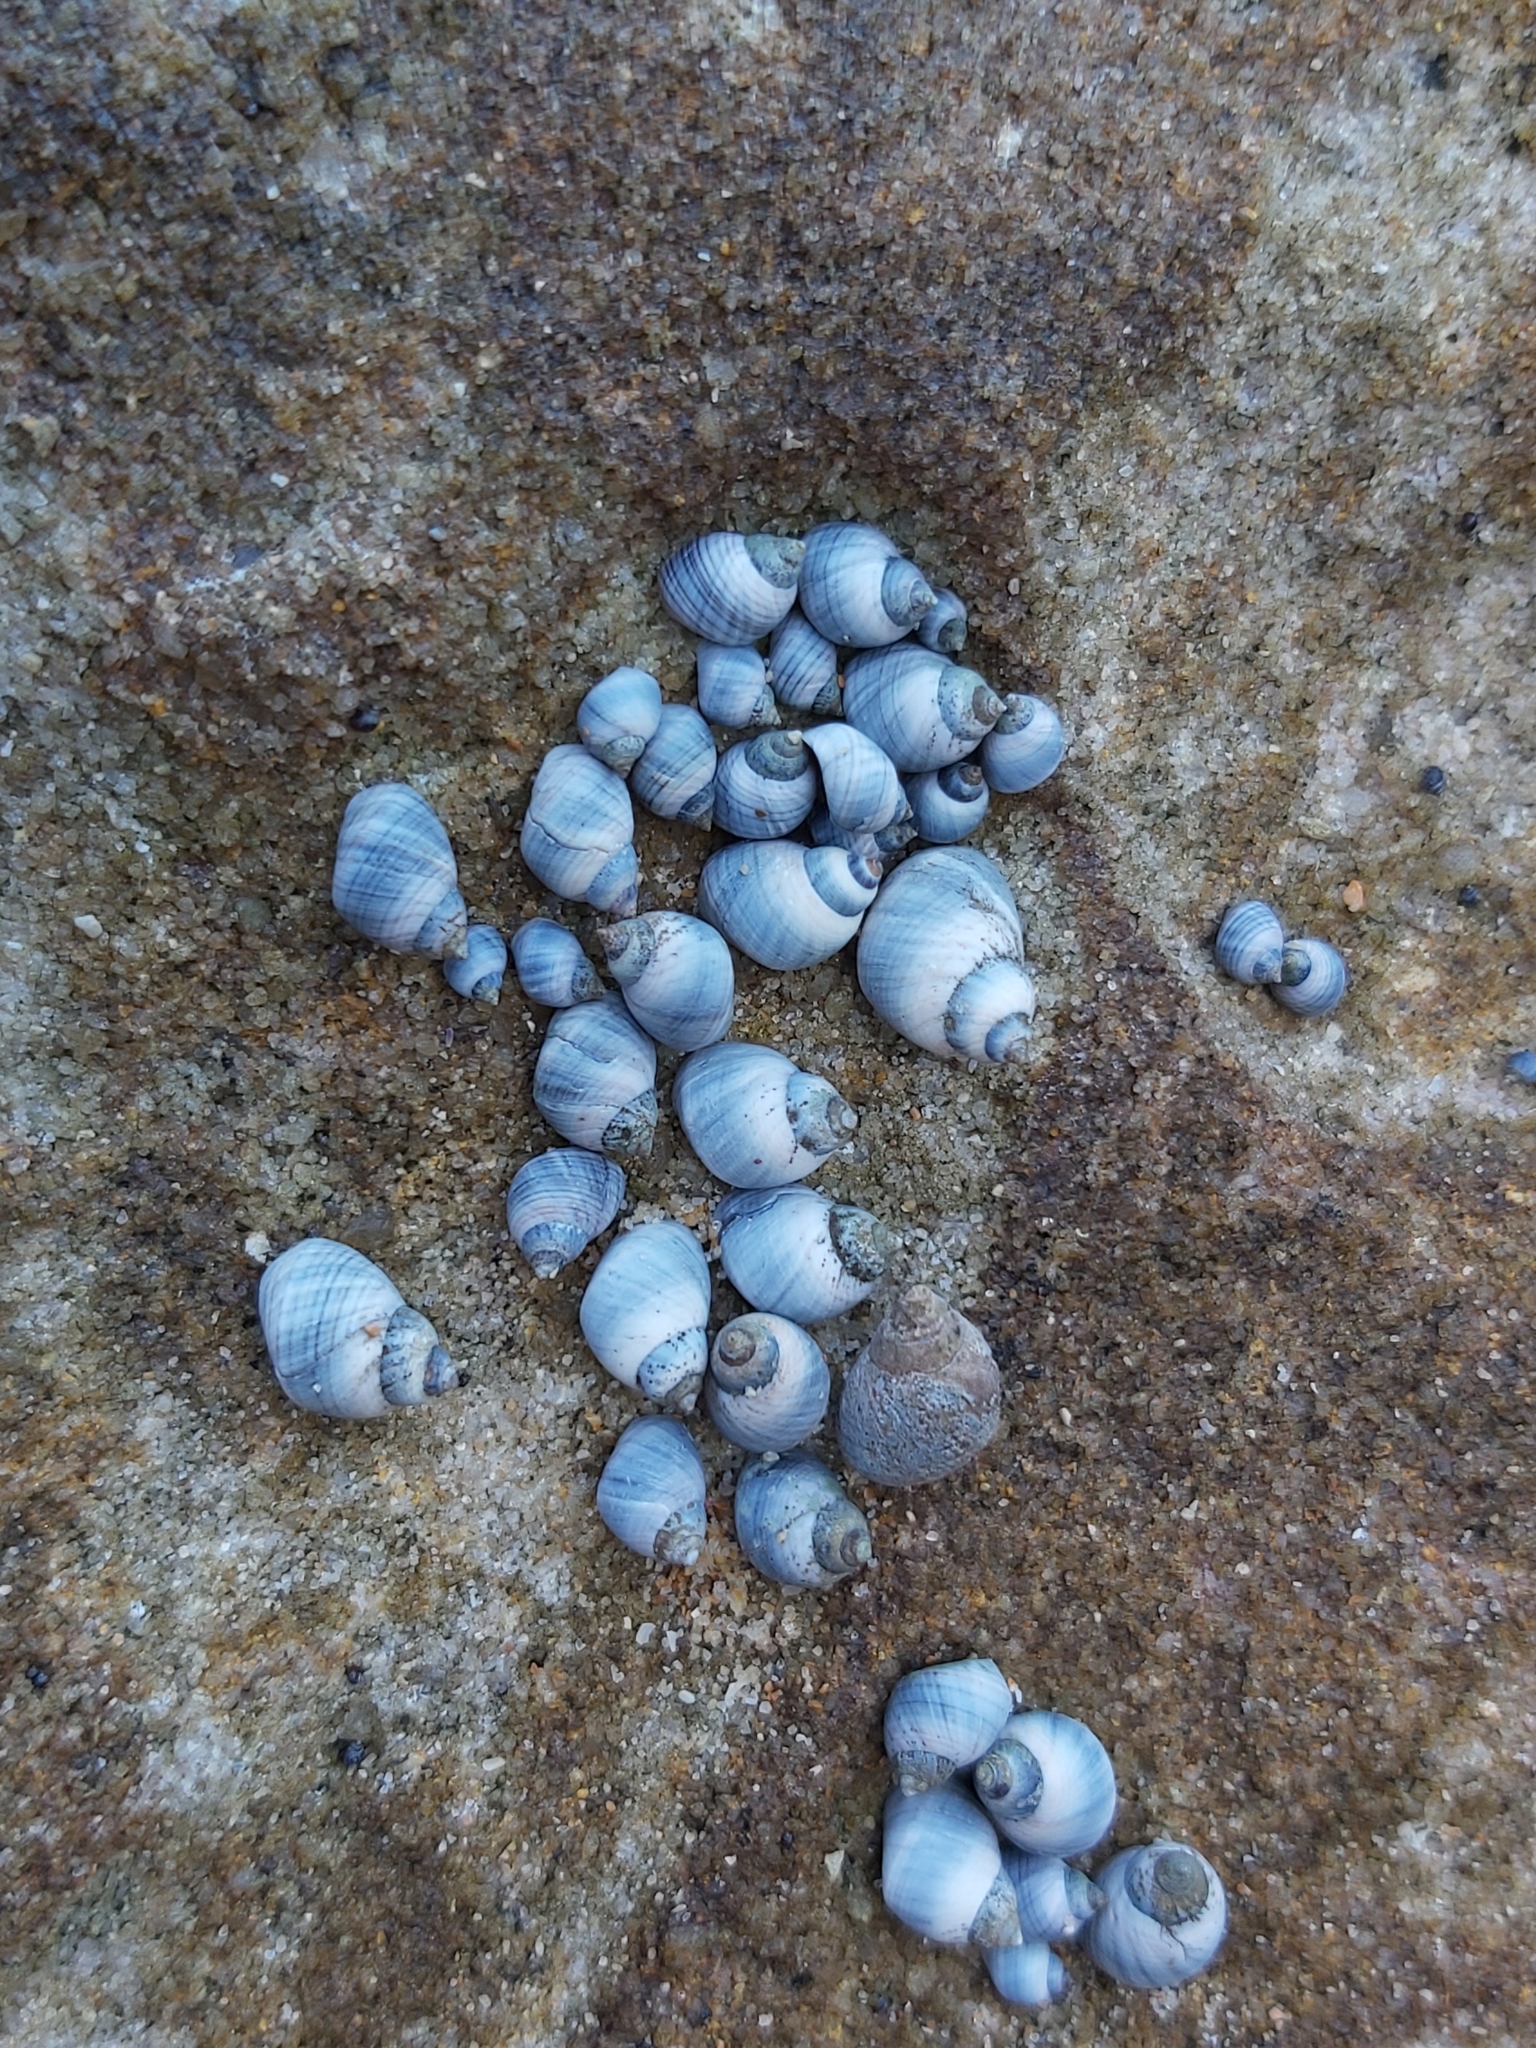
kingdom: Animalia
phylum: Mollusca
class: Gastropoda
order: Littorinimorpha
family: Littorinidae
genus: Austrolittorina
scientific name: Austrolittorina unifasciata
